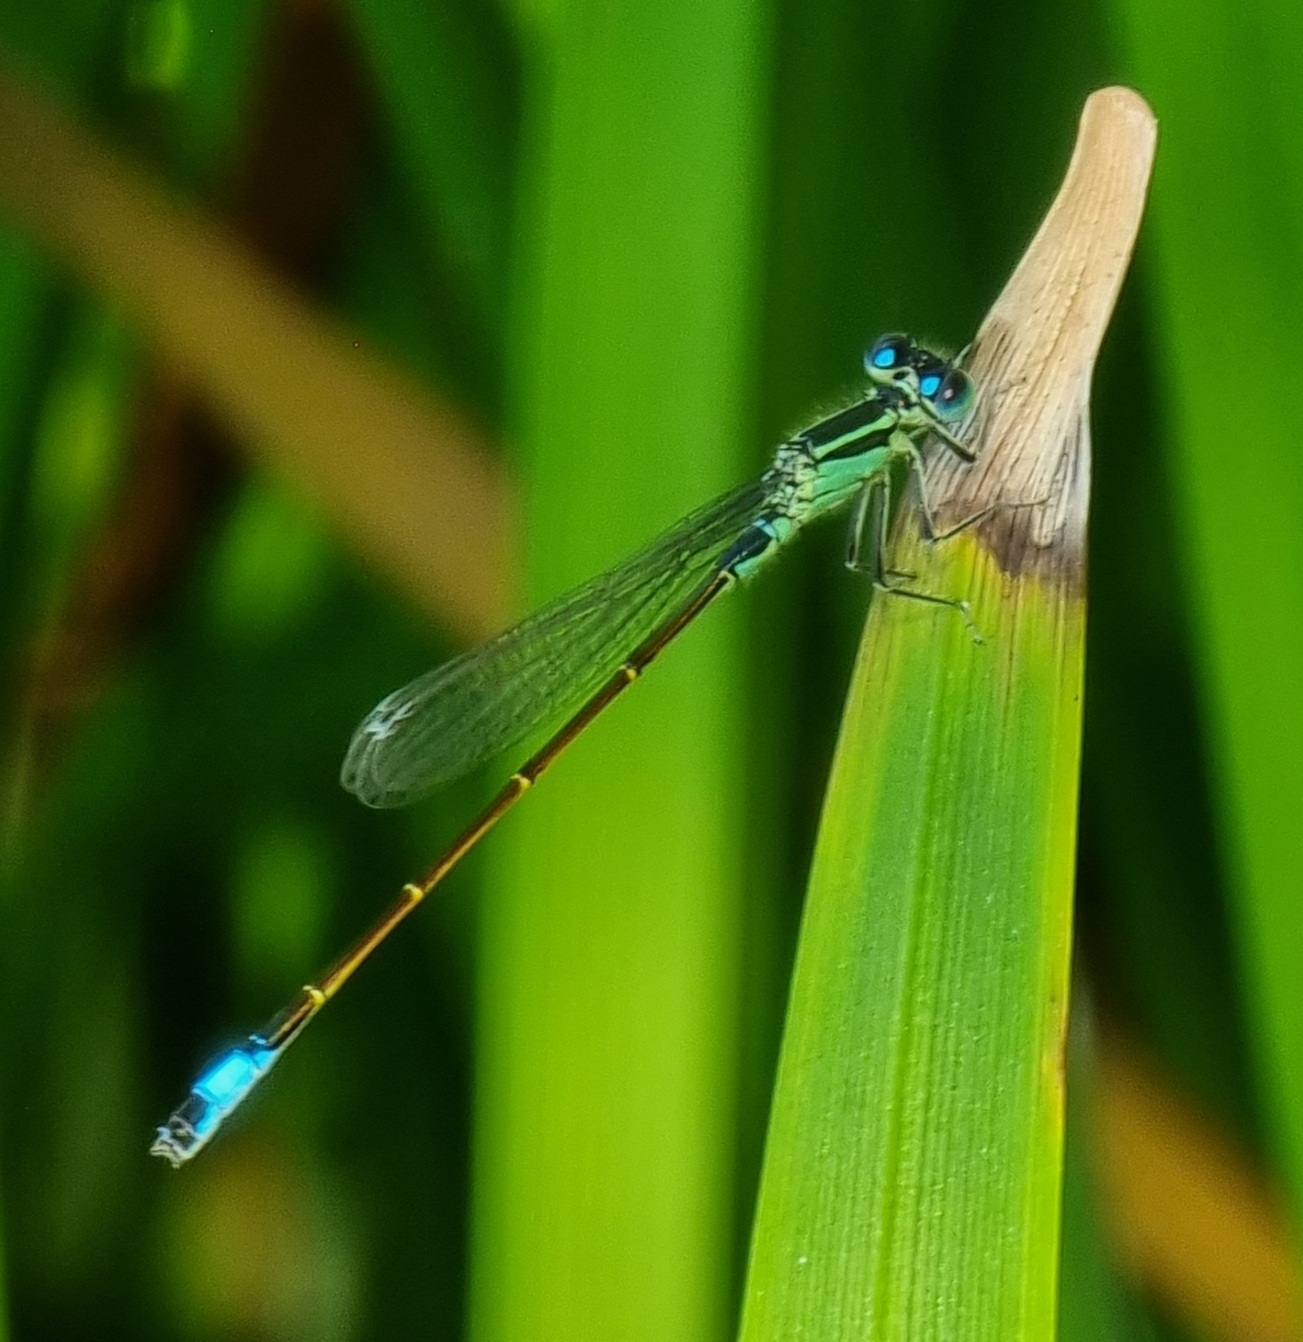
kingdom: Animalia
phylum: Arthropoda
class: Insecta
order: Odonata
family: Coenagrionidae
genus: Ischnura
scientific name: Ischnura elegans
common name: Blue-tailed damselfly
